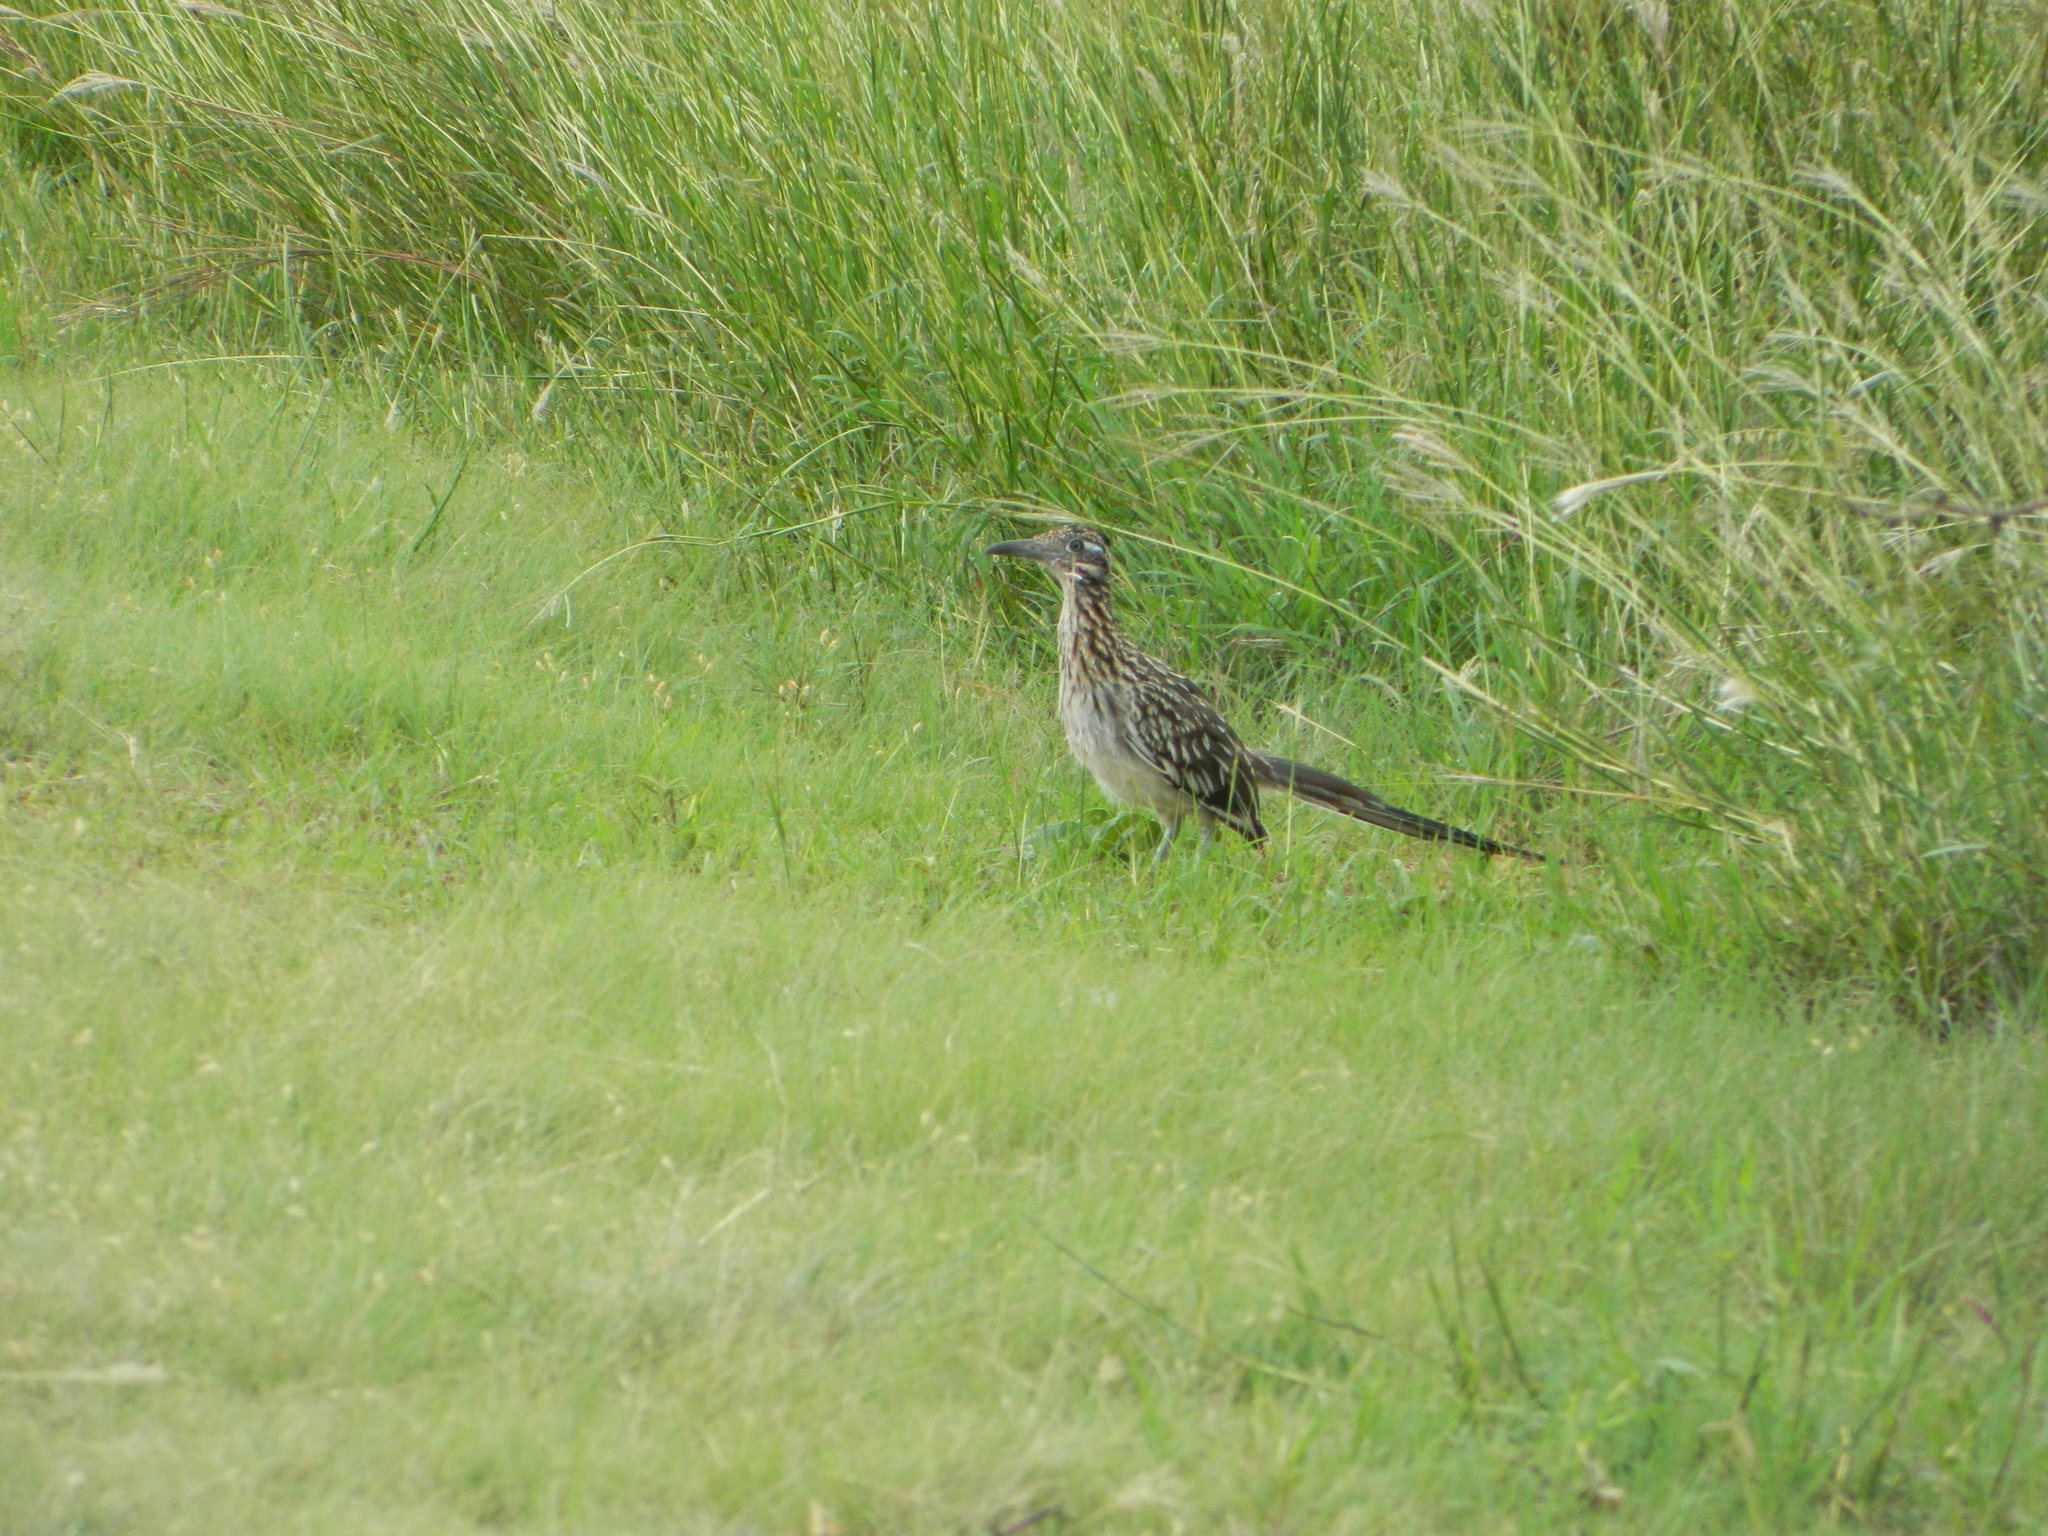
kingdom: Animalia
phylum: Chordata
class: Aves
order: Cuculiformes
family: Cuculidae
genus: Geococcyx
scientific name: Geococcyx californianus
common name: Greater roadrunner
